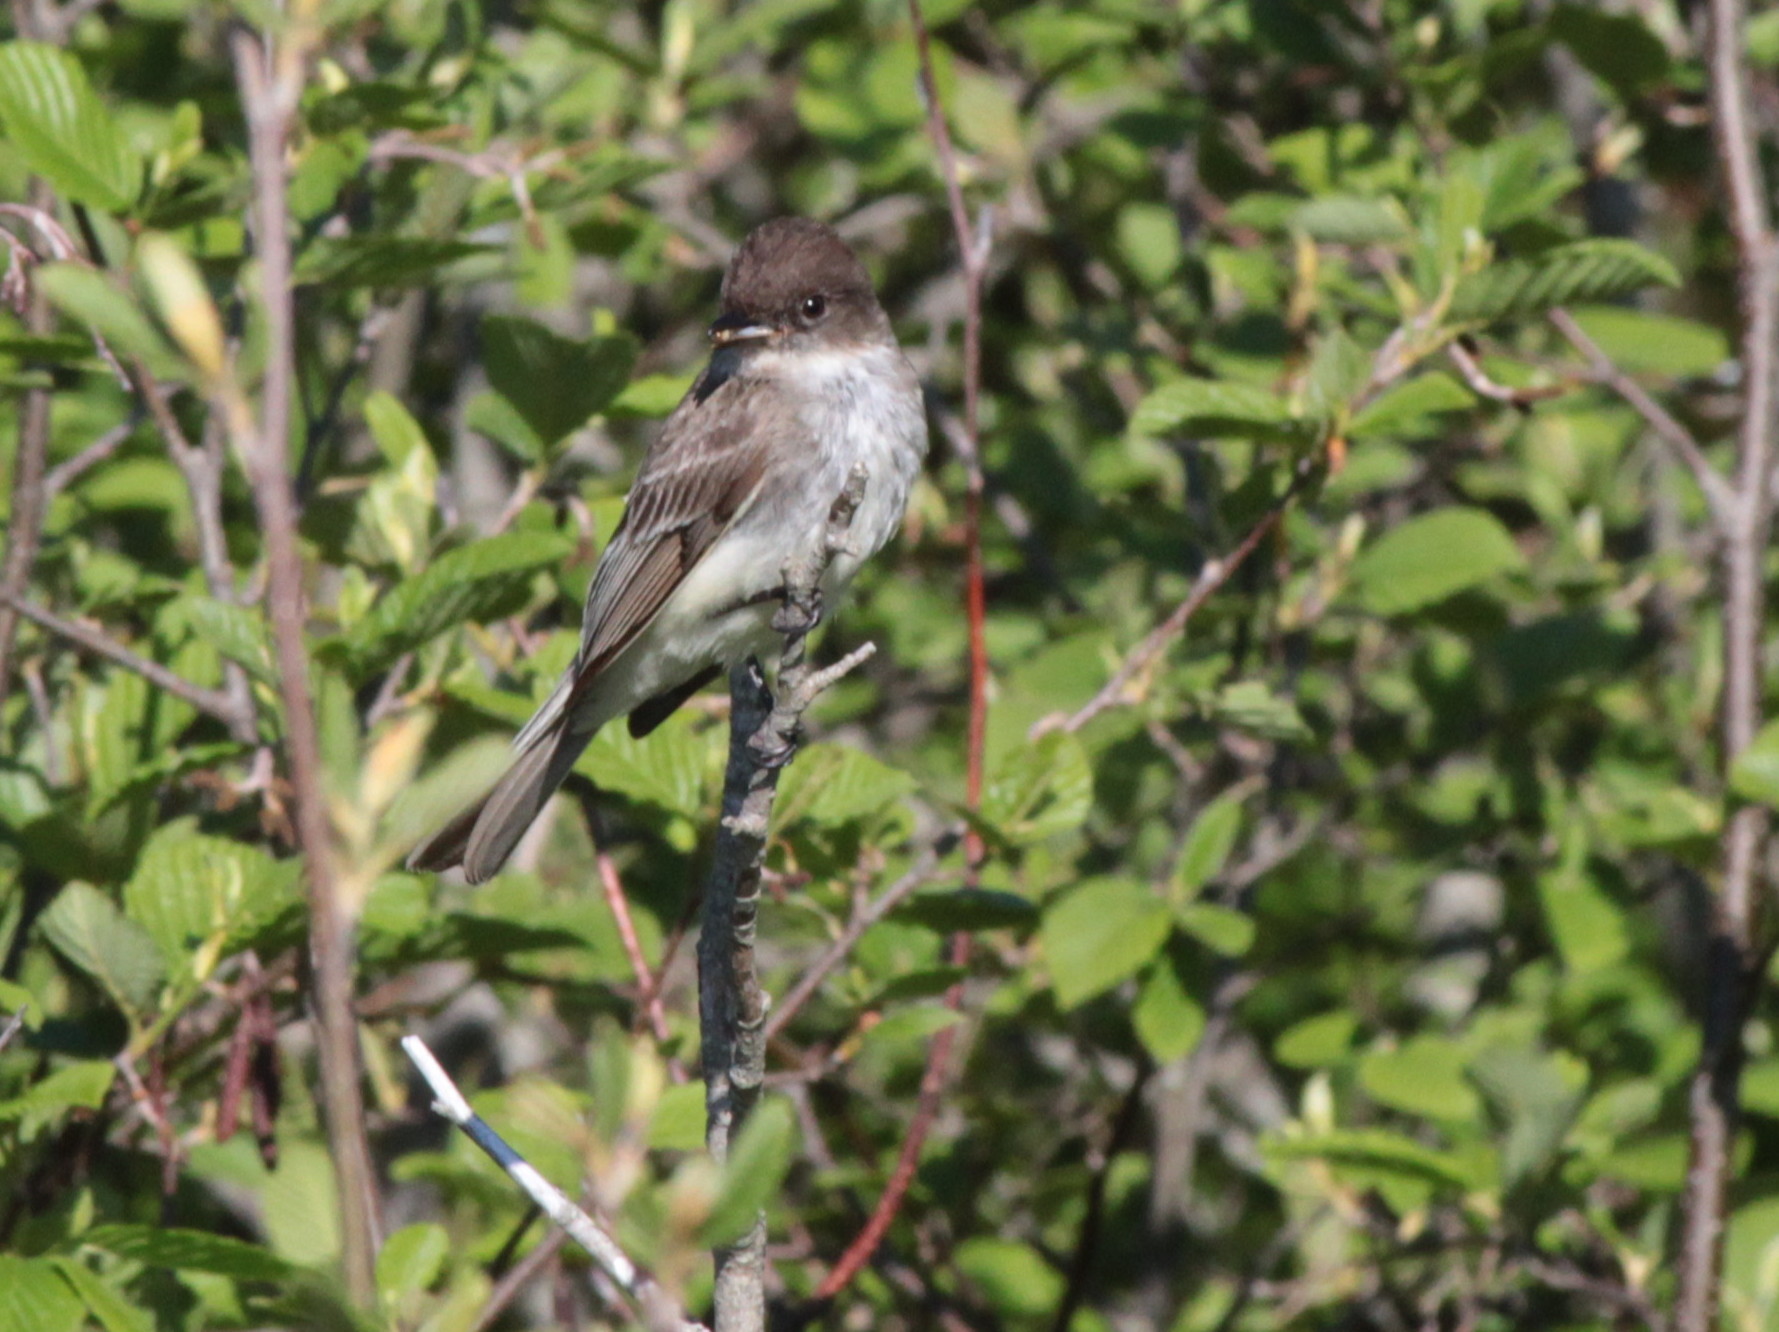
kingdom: Animalia
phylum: Chordata
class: Aves
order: Passeriformes
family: Tyrannidae
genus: Sayornis
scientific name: Sayornis phoebe
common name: Eastern phoebe
